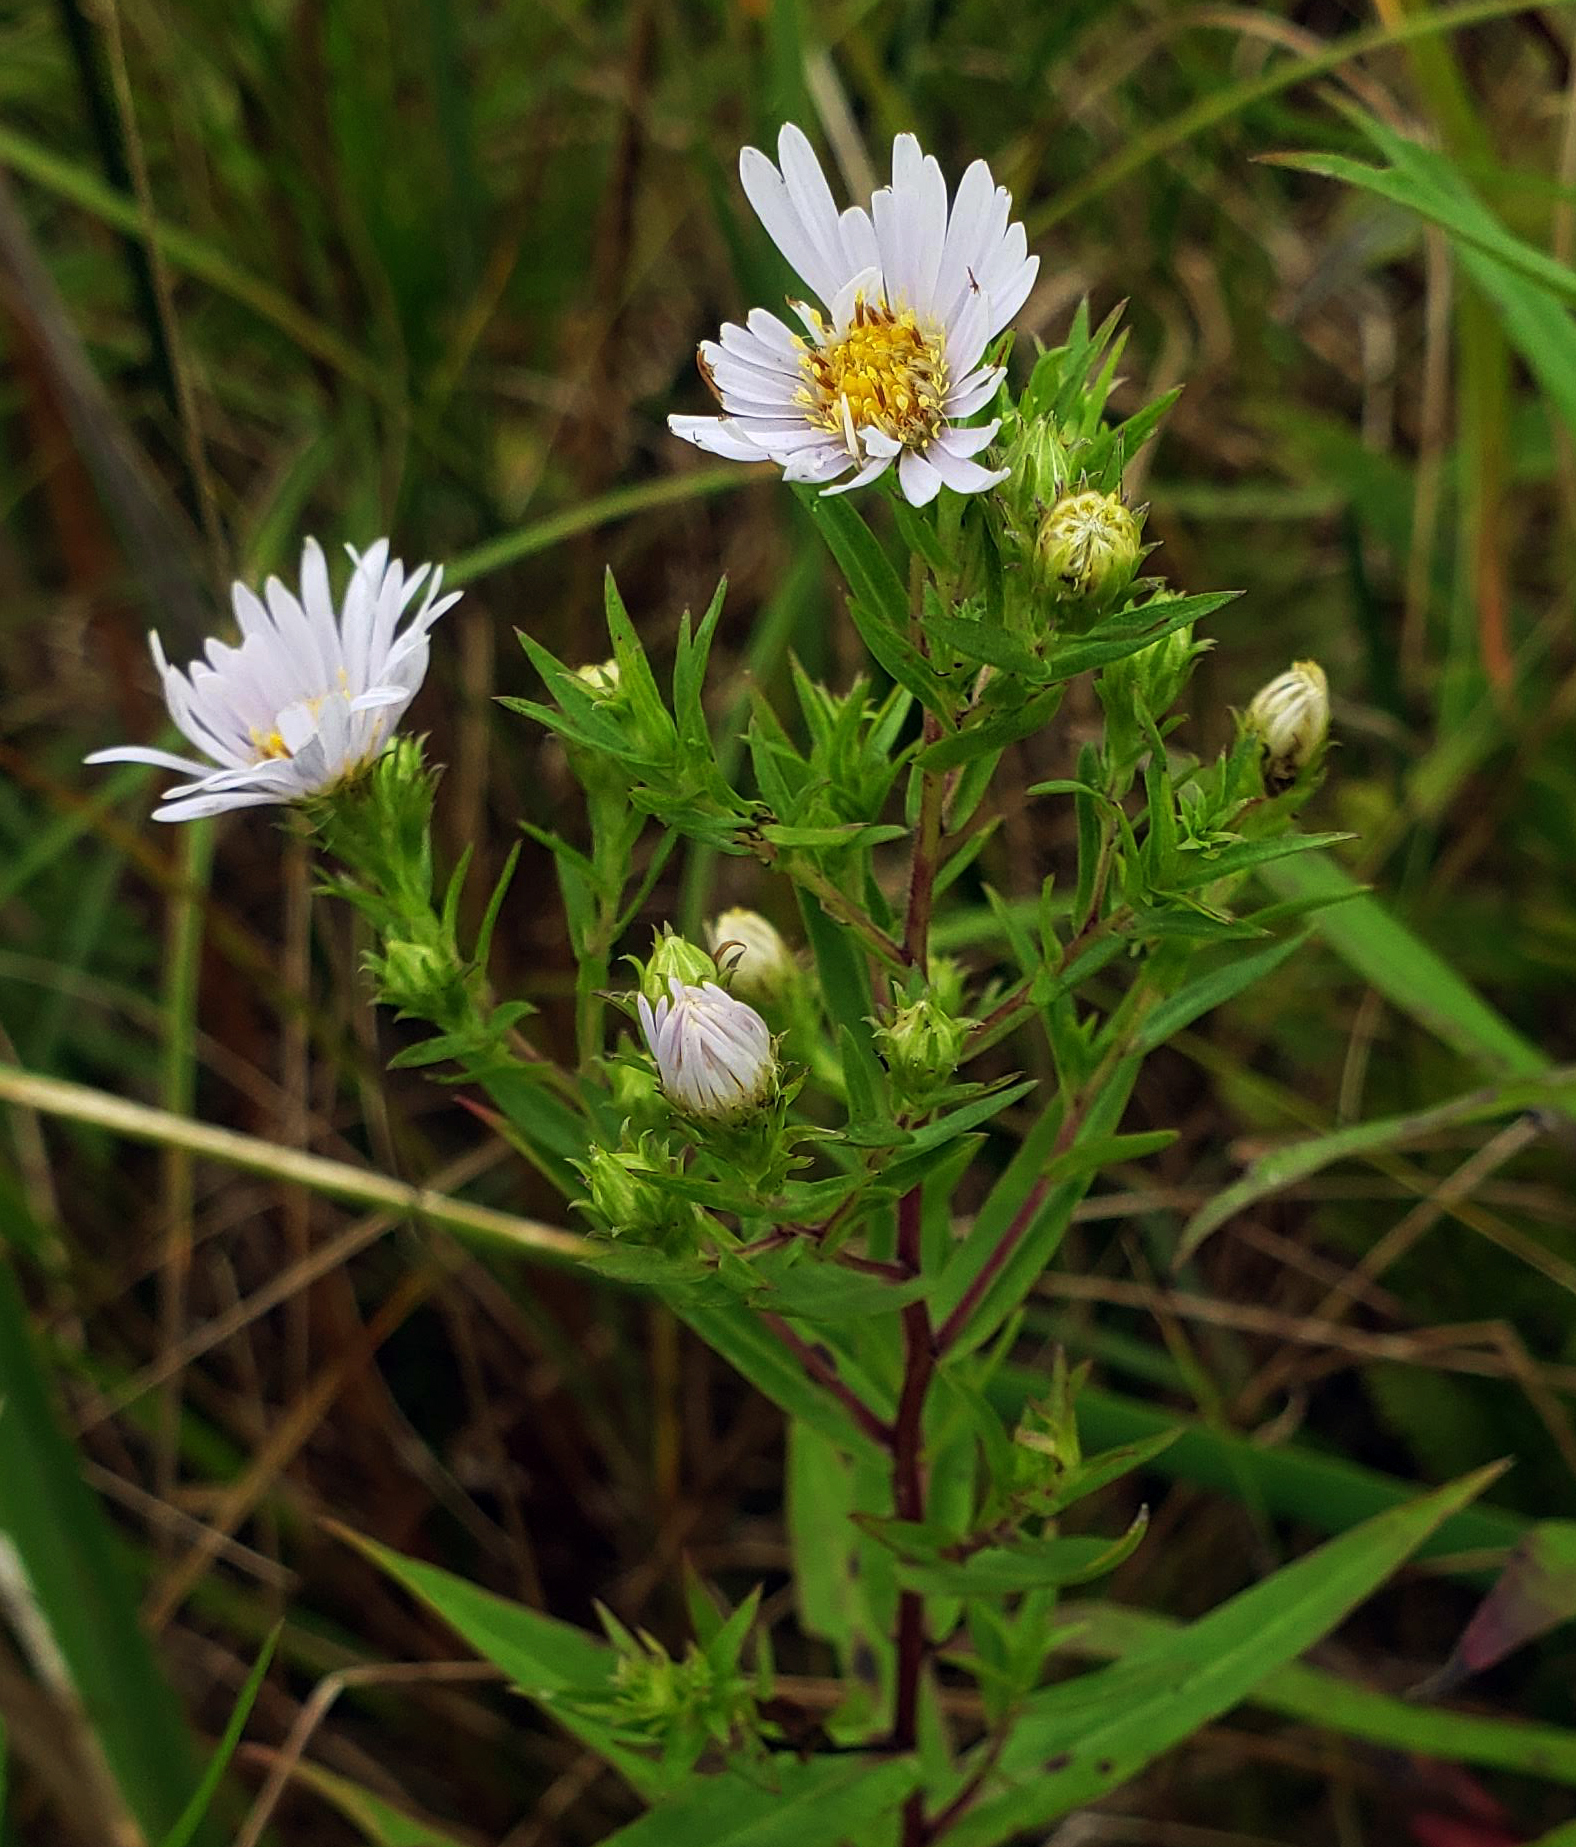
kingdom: Plantae
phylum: Tracheophyta
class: Magnoliopsida
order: Asterales
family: Asteraceae
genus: Symphyotrichum
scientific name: Symphyotrichum firmum
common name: Shining aster
